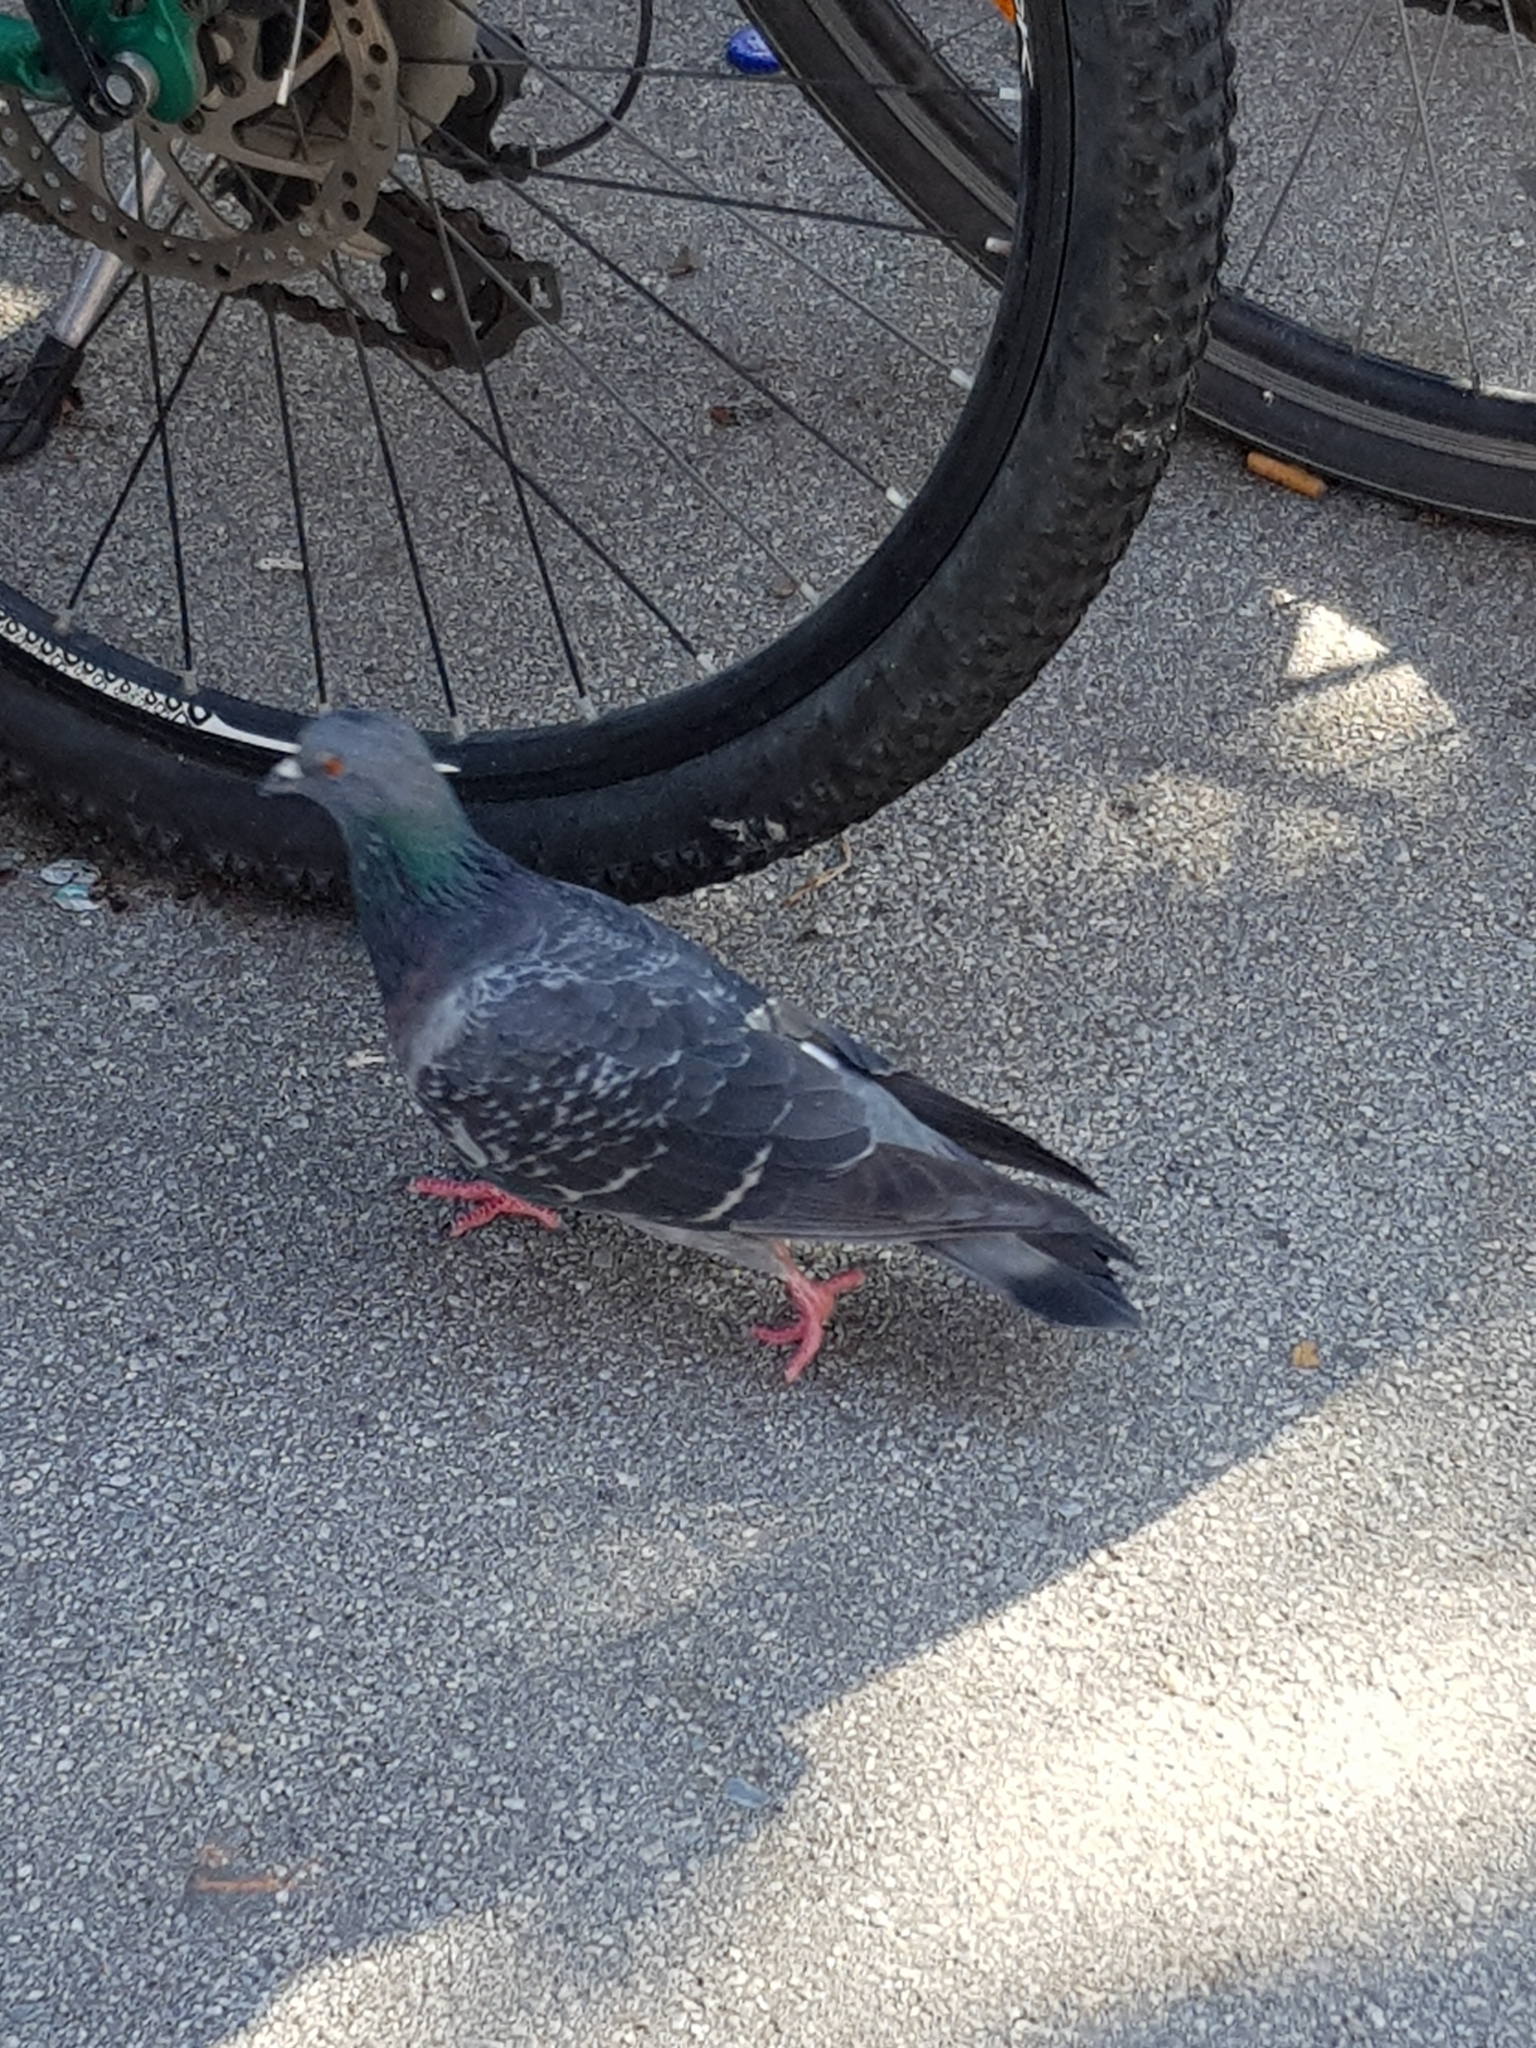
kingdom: Animalia
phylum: Chordata
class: Aves
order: Columbiformes
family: Columbidae
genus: Columba
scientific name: Columba livia
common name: Rock pigeon
